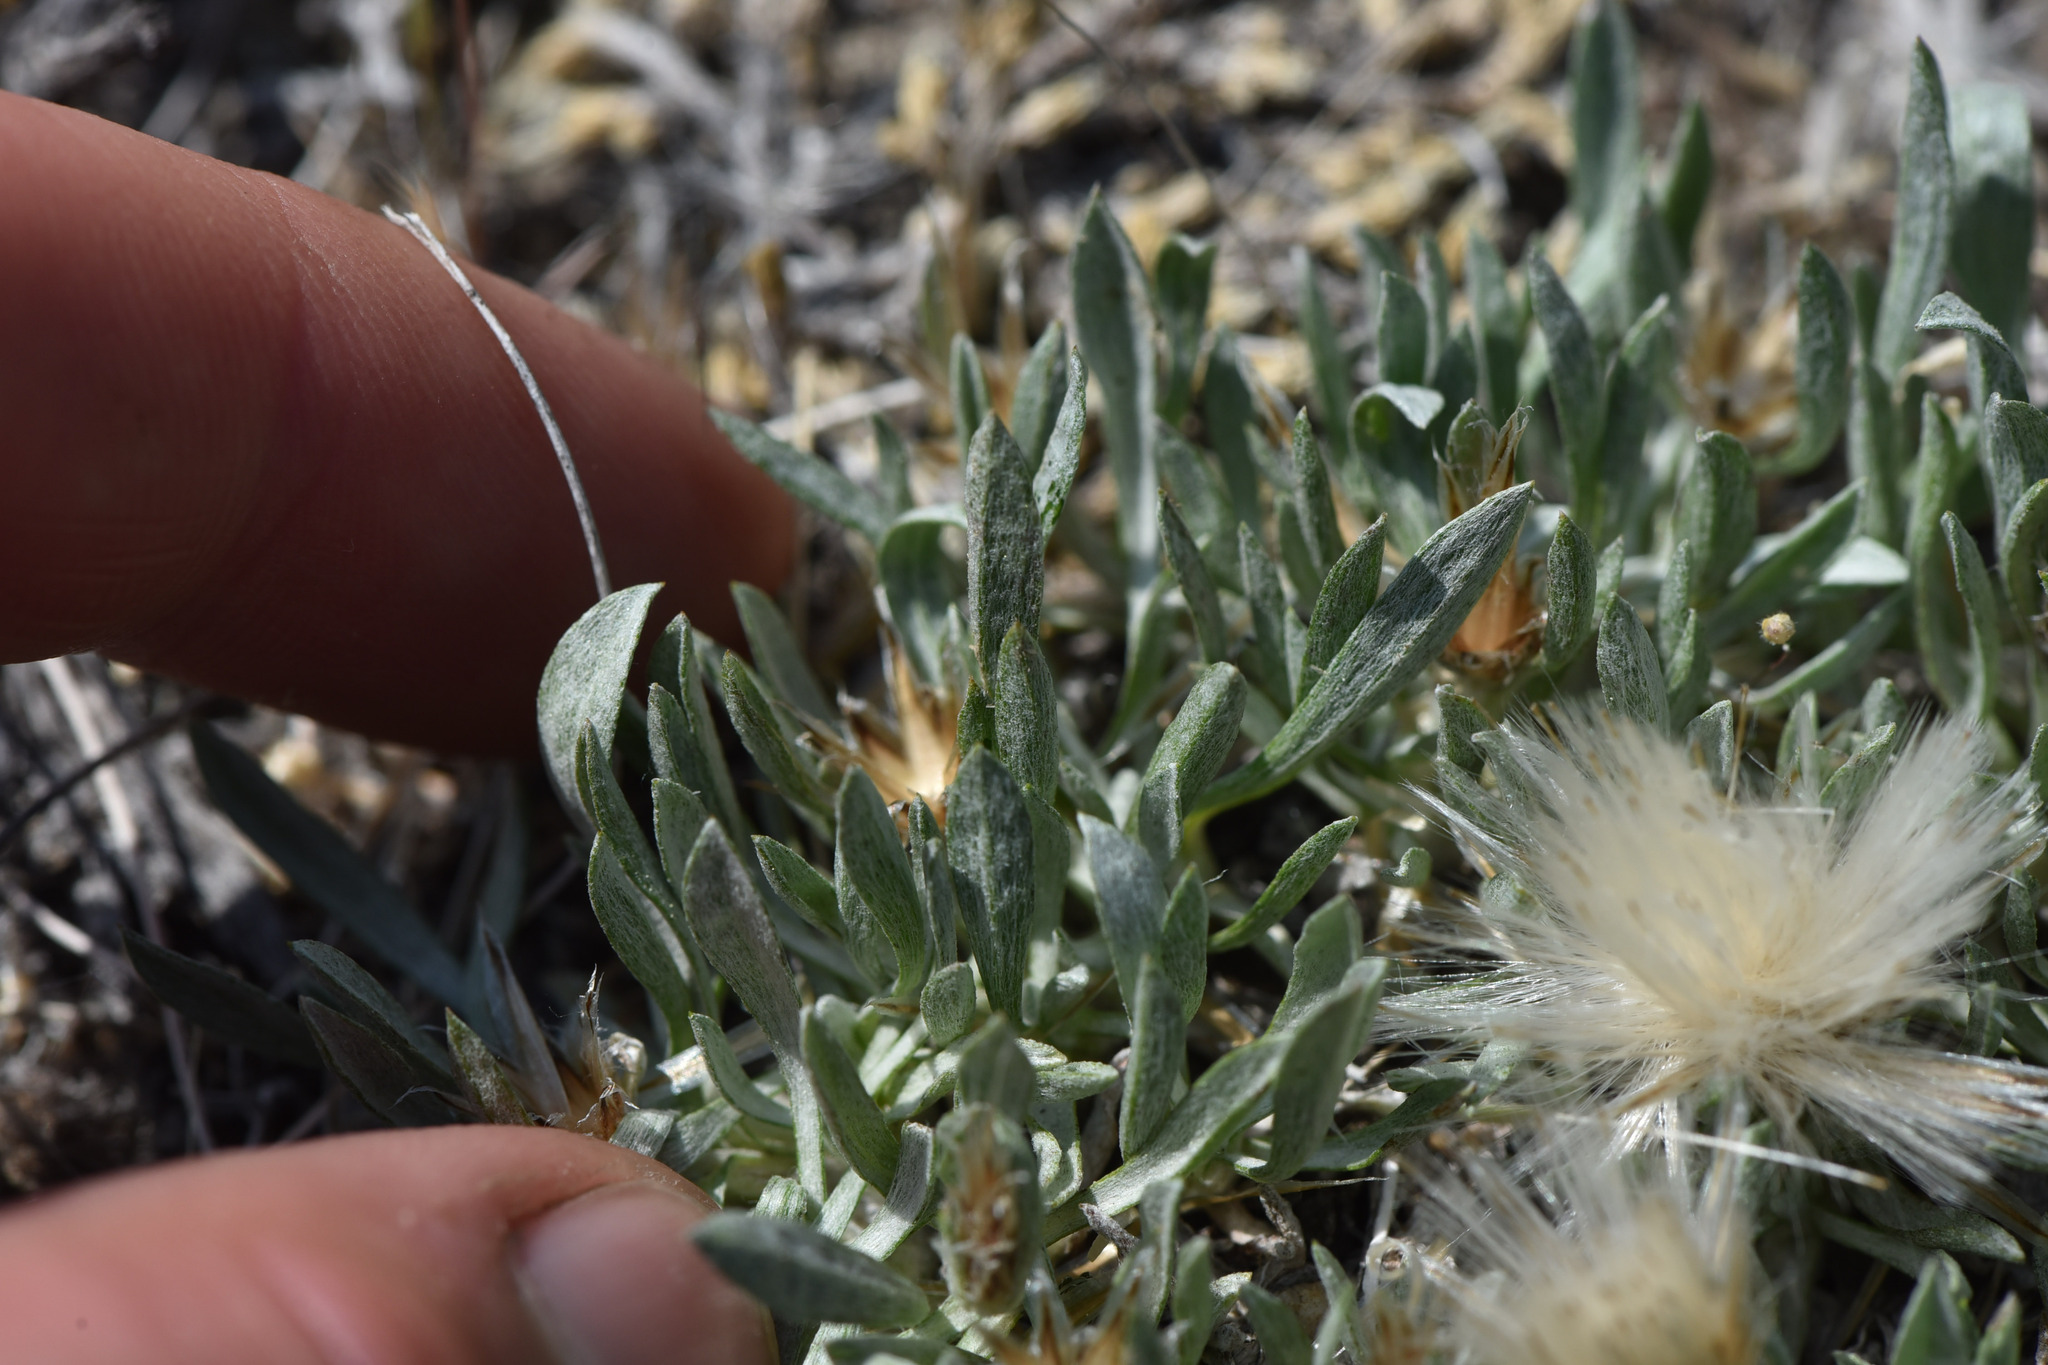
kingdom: Plantae
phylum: Tracheophyta
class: Magnoliopsida
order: Asterales
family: Asteraceae
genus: Antennaria
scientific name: Antennaria dimorpha
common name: Cushion pussytoes
